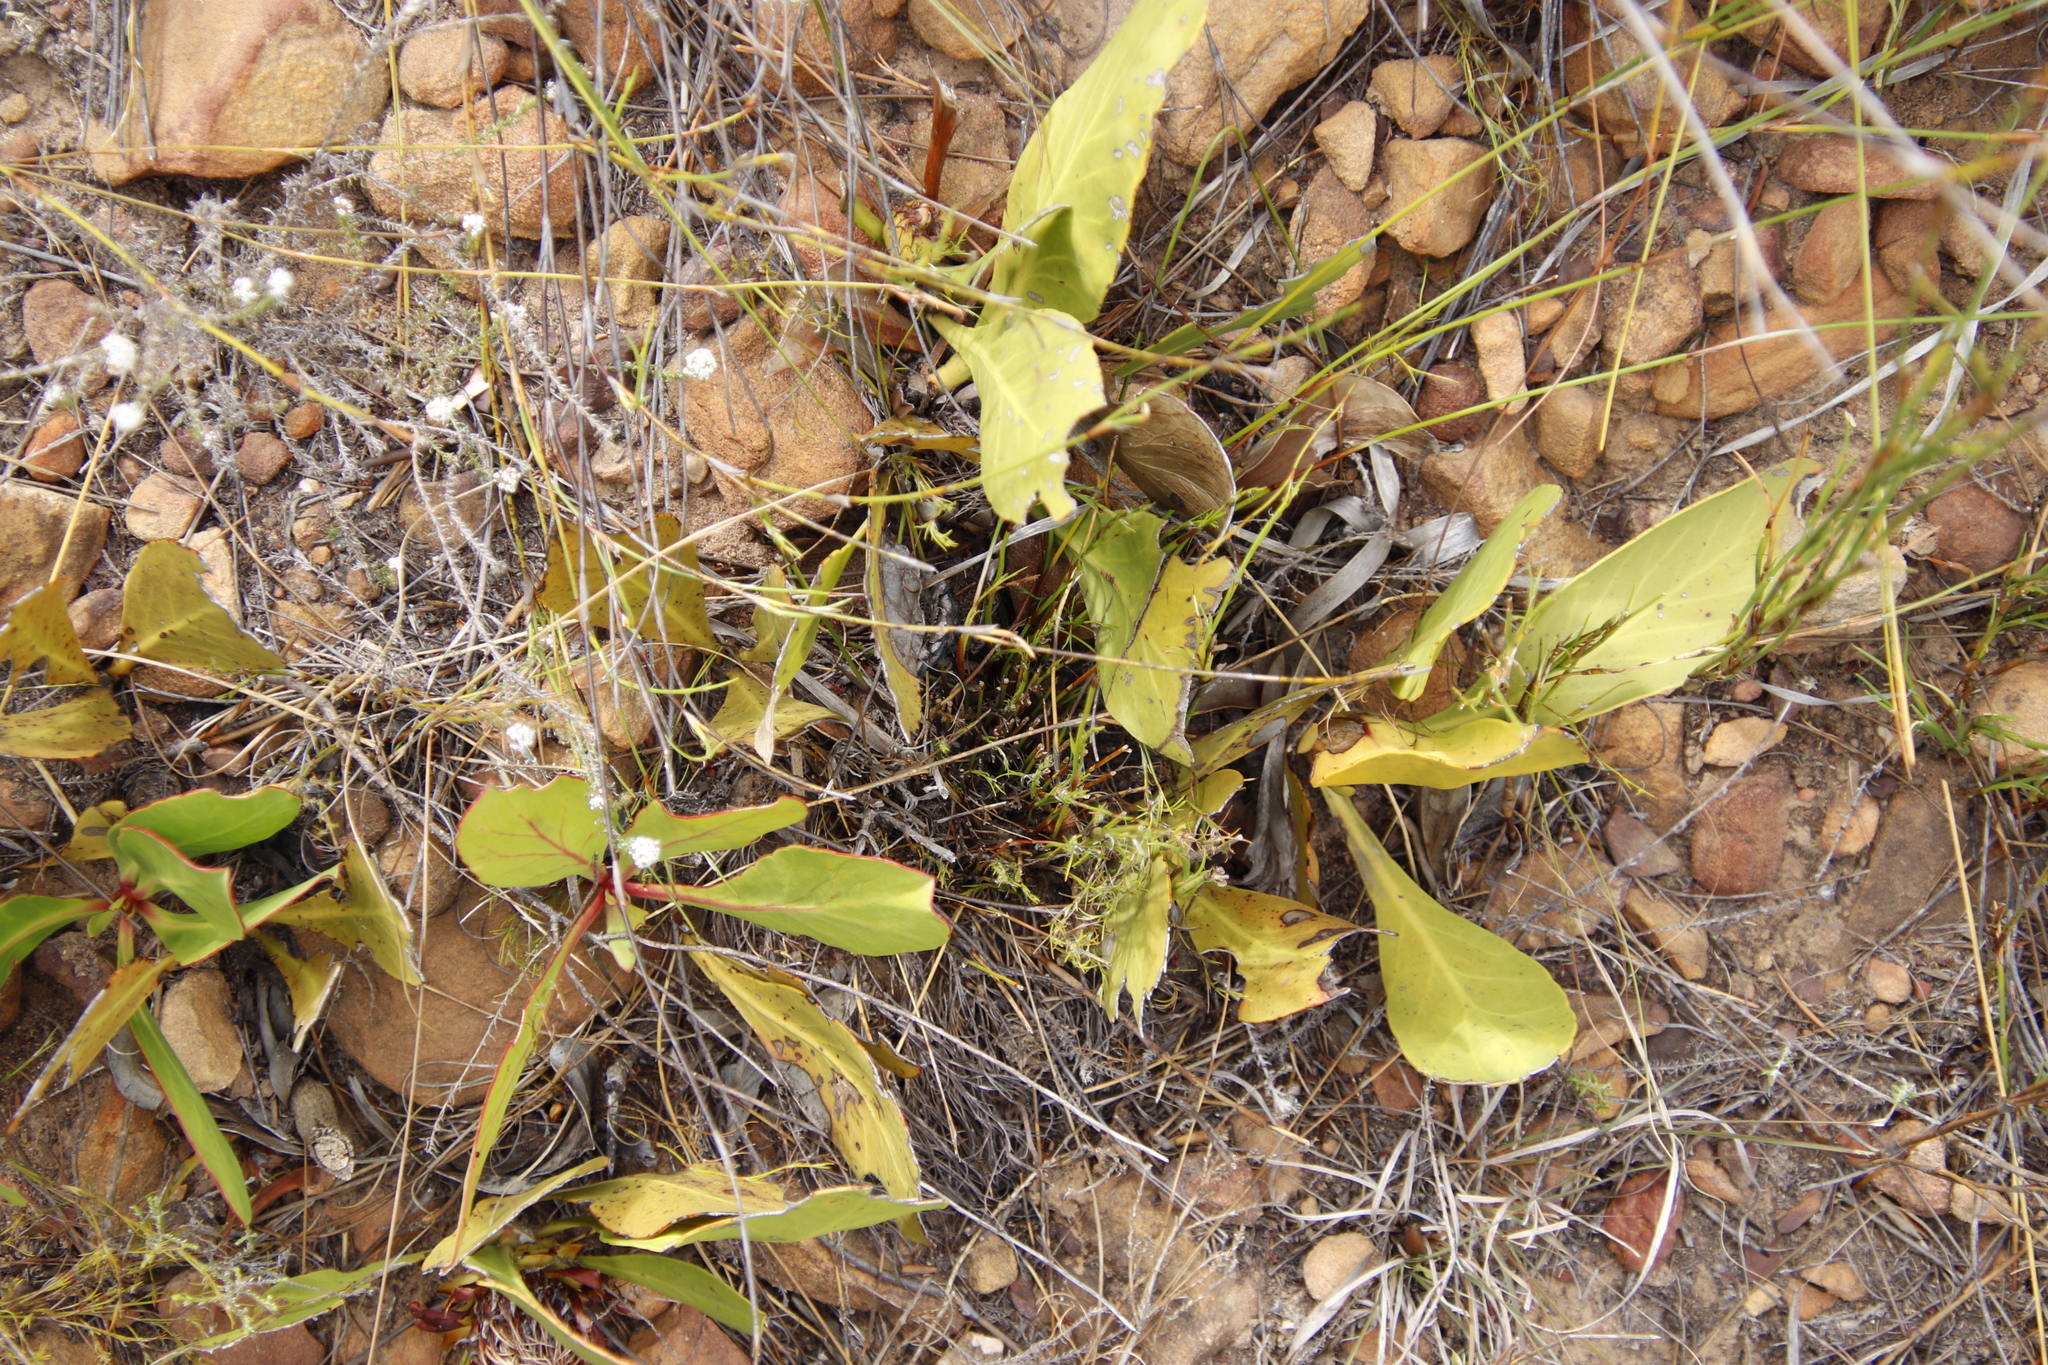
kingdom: Plantae
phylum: Tracheophyta
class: Magnoliopsida
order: Proteales
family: Proteaceae
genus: Protea
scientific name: Protea acaulos
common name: Common ground sugarbush
